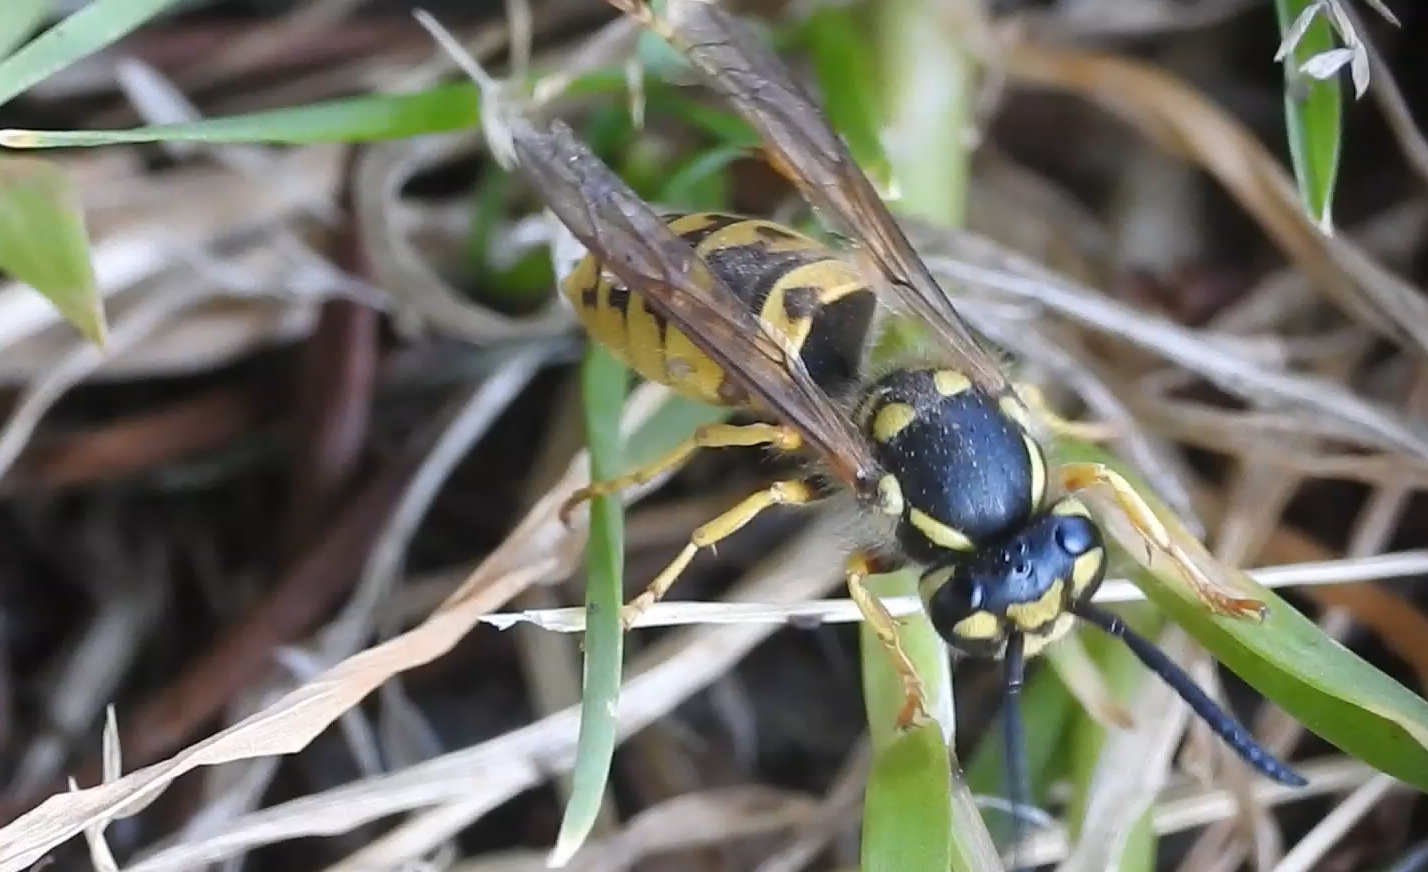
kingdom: Animalia
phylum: Arthropoda
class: Insecta
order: Hymenoptera
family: Vespidae
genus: Vespula
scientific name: Vespula germanica
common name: German wasp
